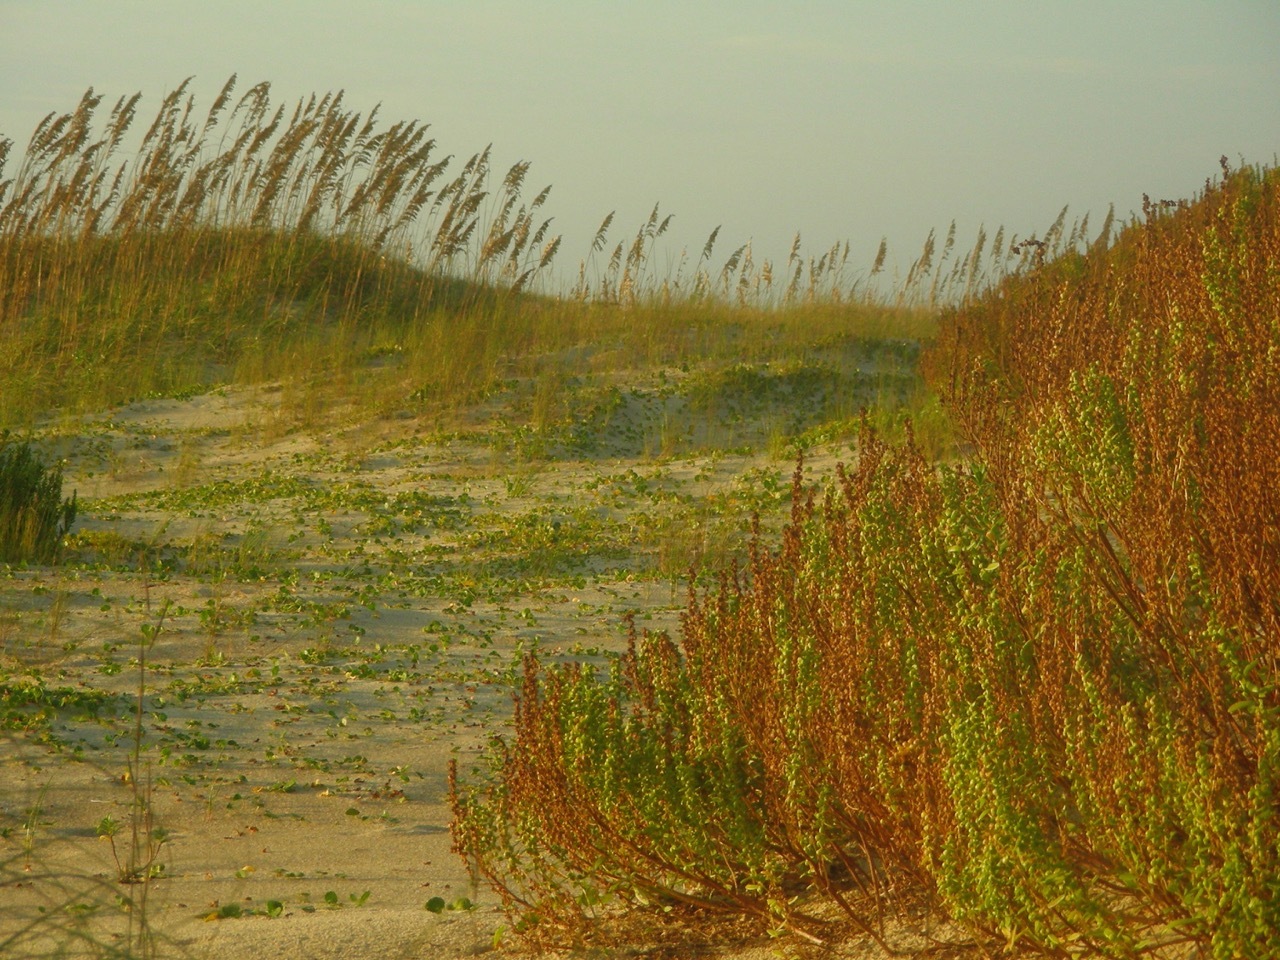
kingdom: Plantae
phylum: Tracheophyta
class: Liliopsida
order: Poales
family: Poaceae
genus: Uniola
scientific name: Uniola paniculata
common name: Seaside-oats
